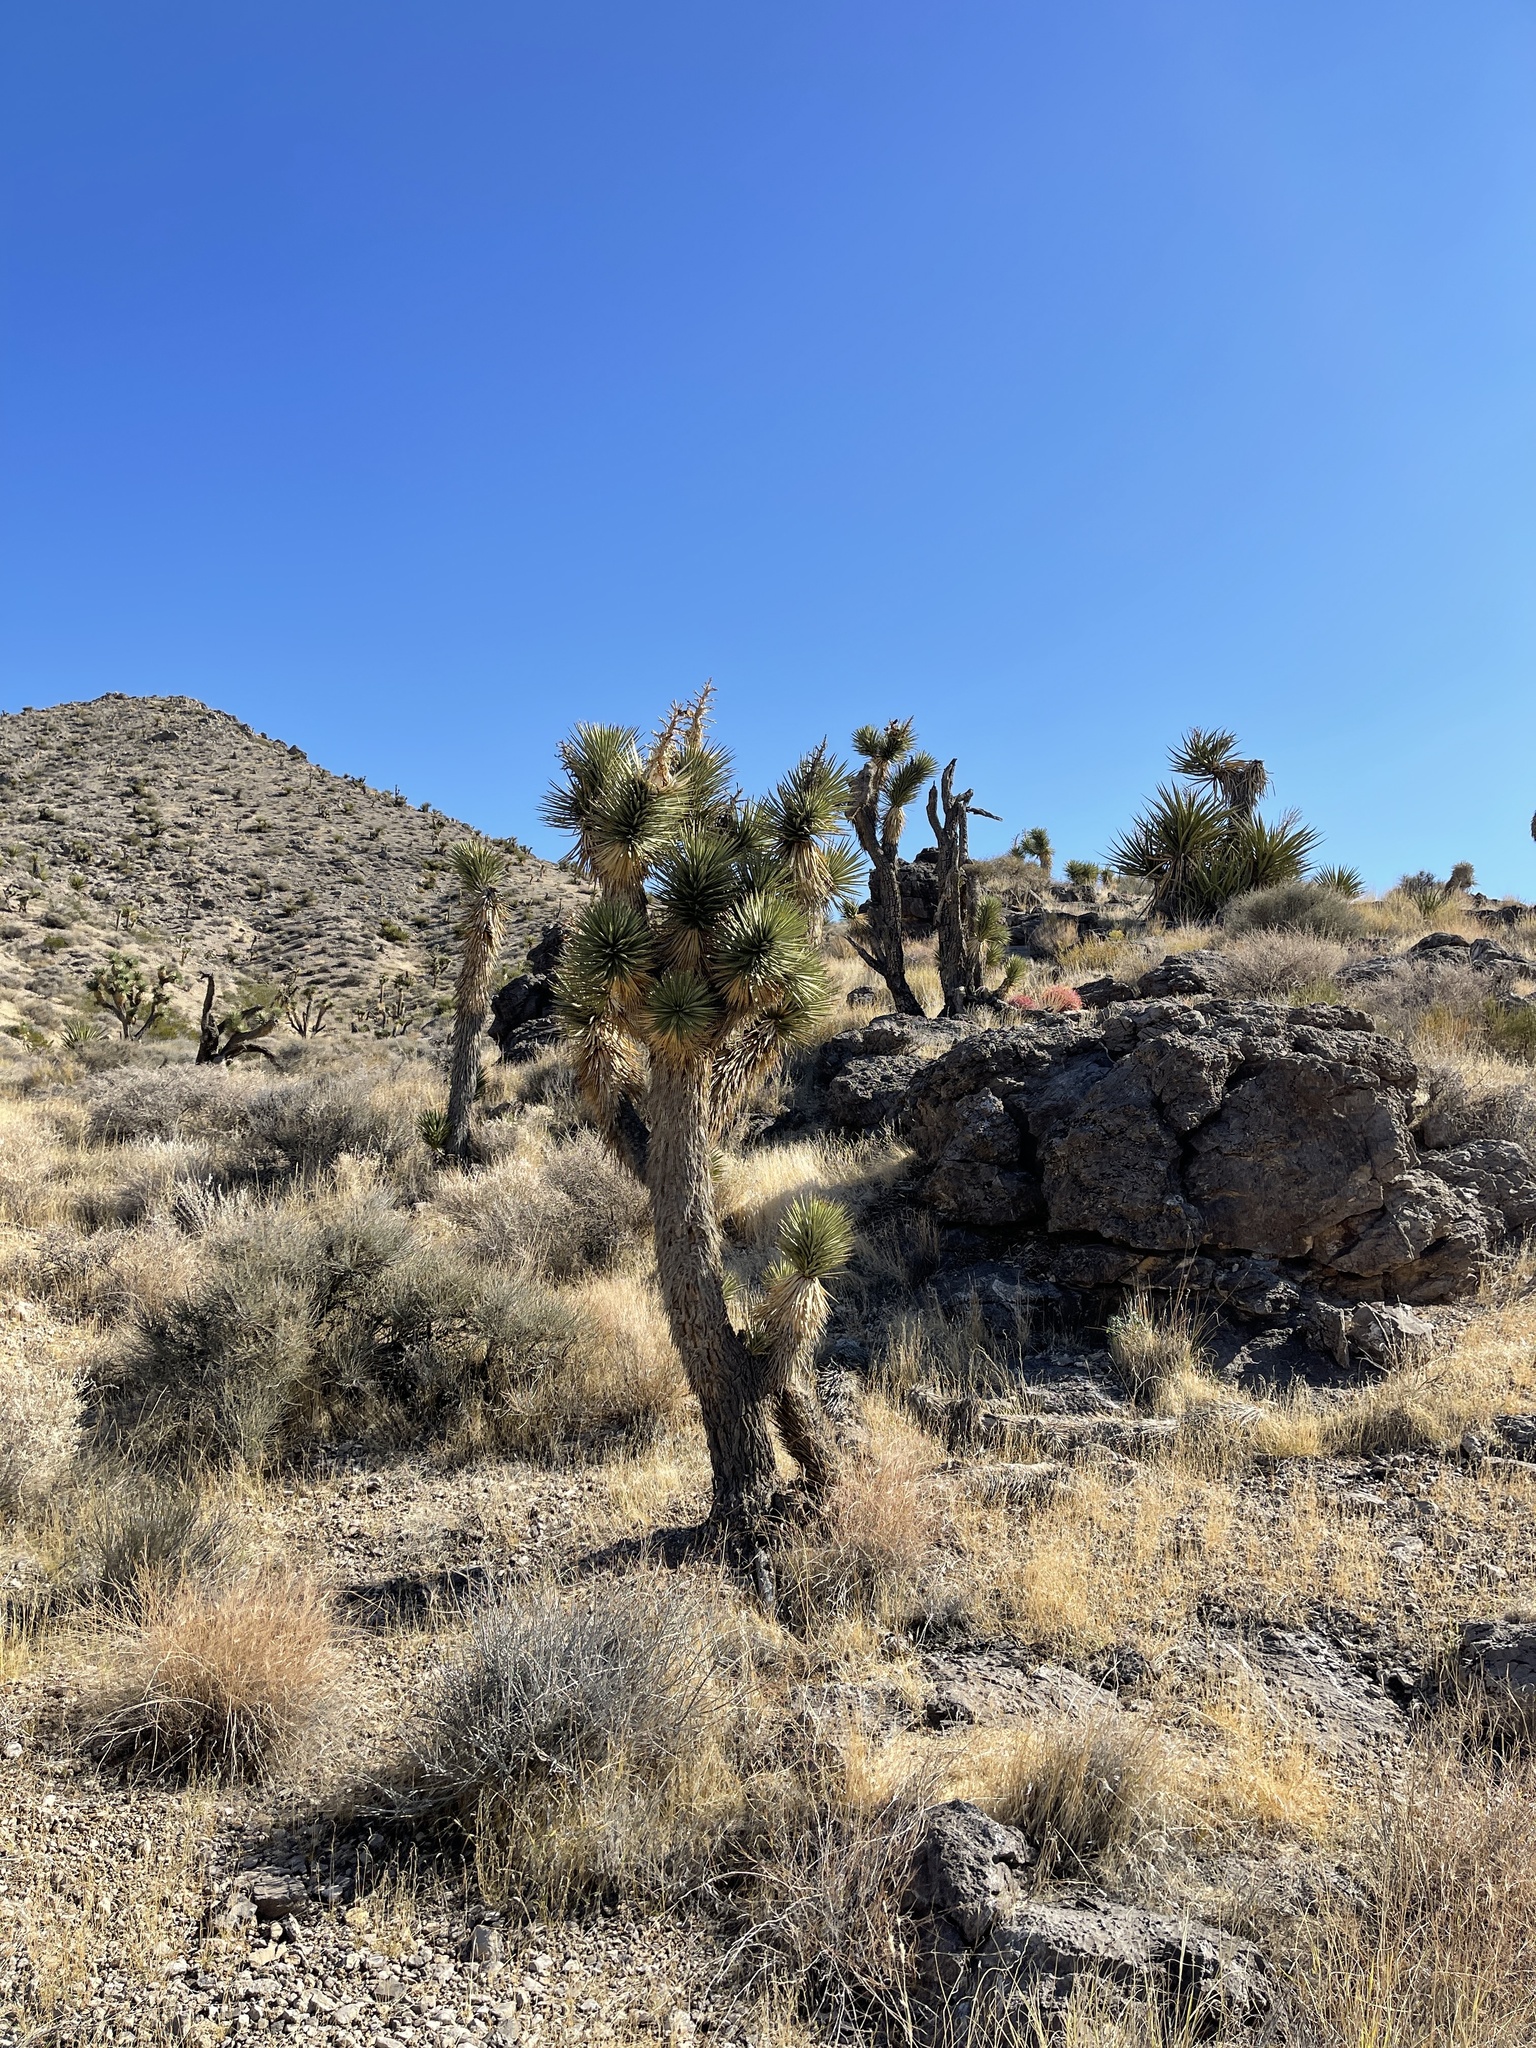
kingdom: Plantae
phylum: Tracheophyta
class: Liliopsida
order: Asparagales
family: Asparagaceae
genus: Yucca
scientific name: Yucca brevifolia
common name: Joshua tree
